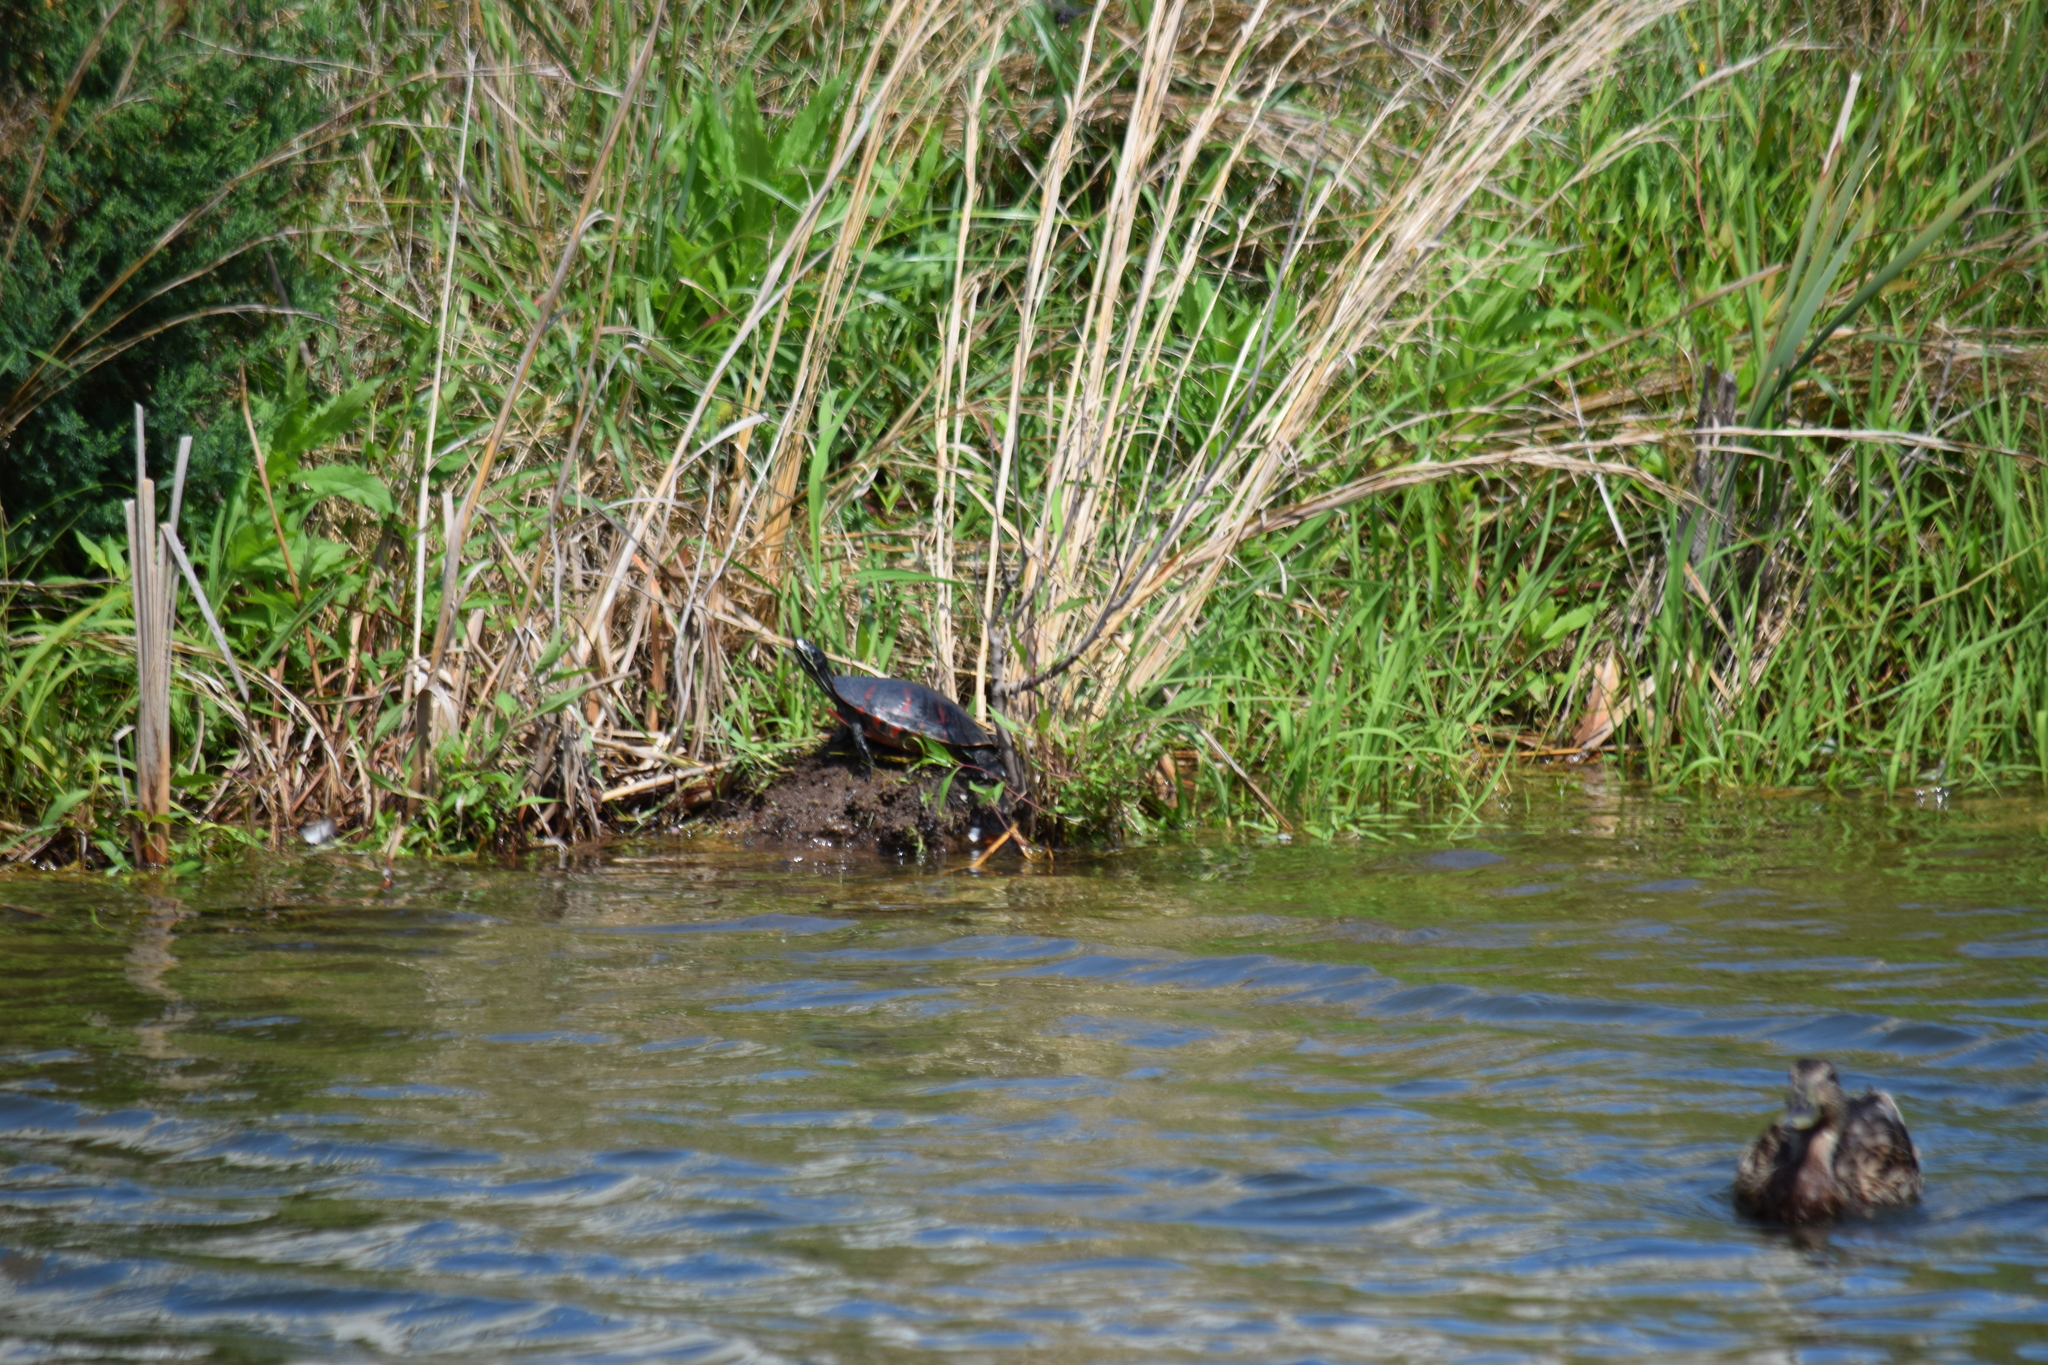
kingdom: Animalia
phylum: Chordata
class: Testudines
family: Emydidae
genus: Pseudemys
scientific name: Pseudemys rubriventris
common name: American red-bellied turtle
